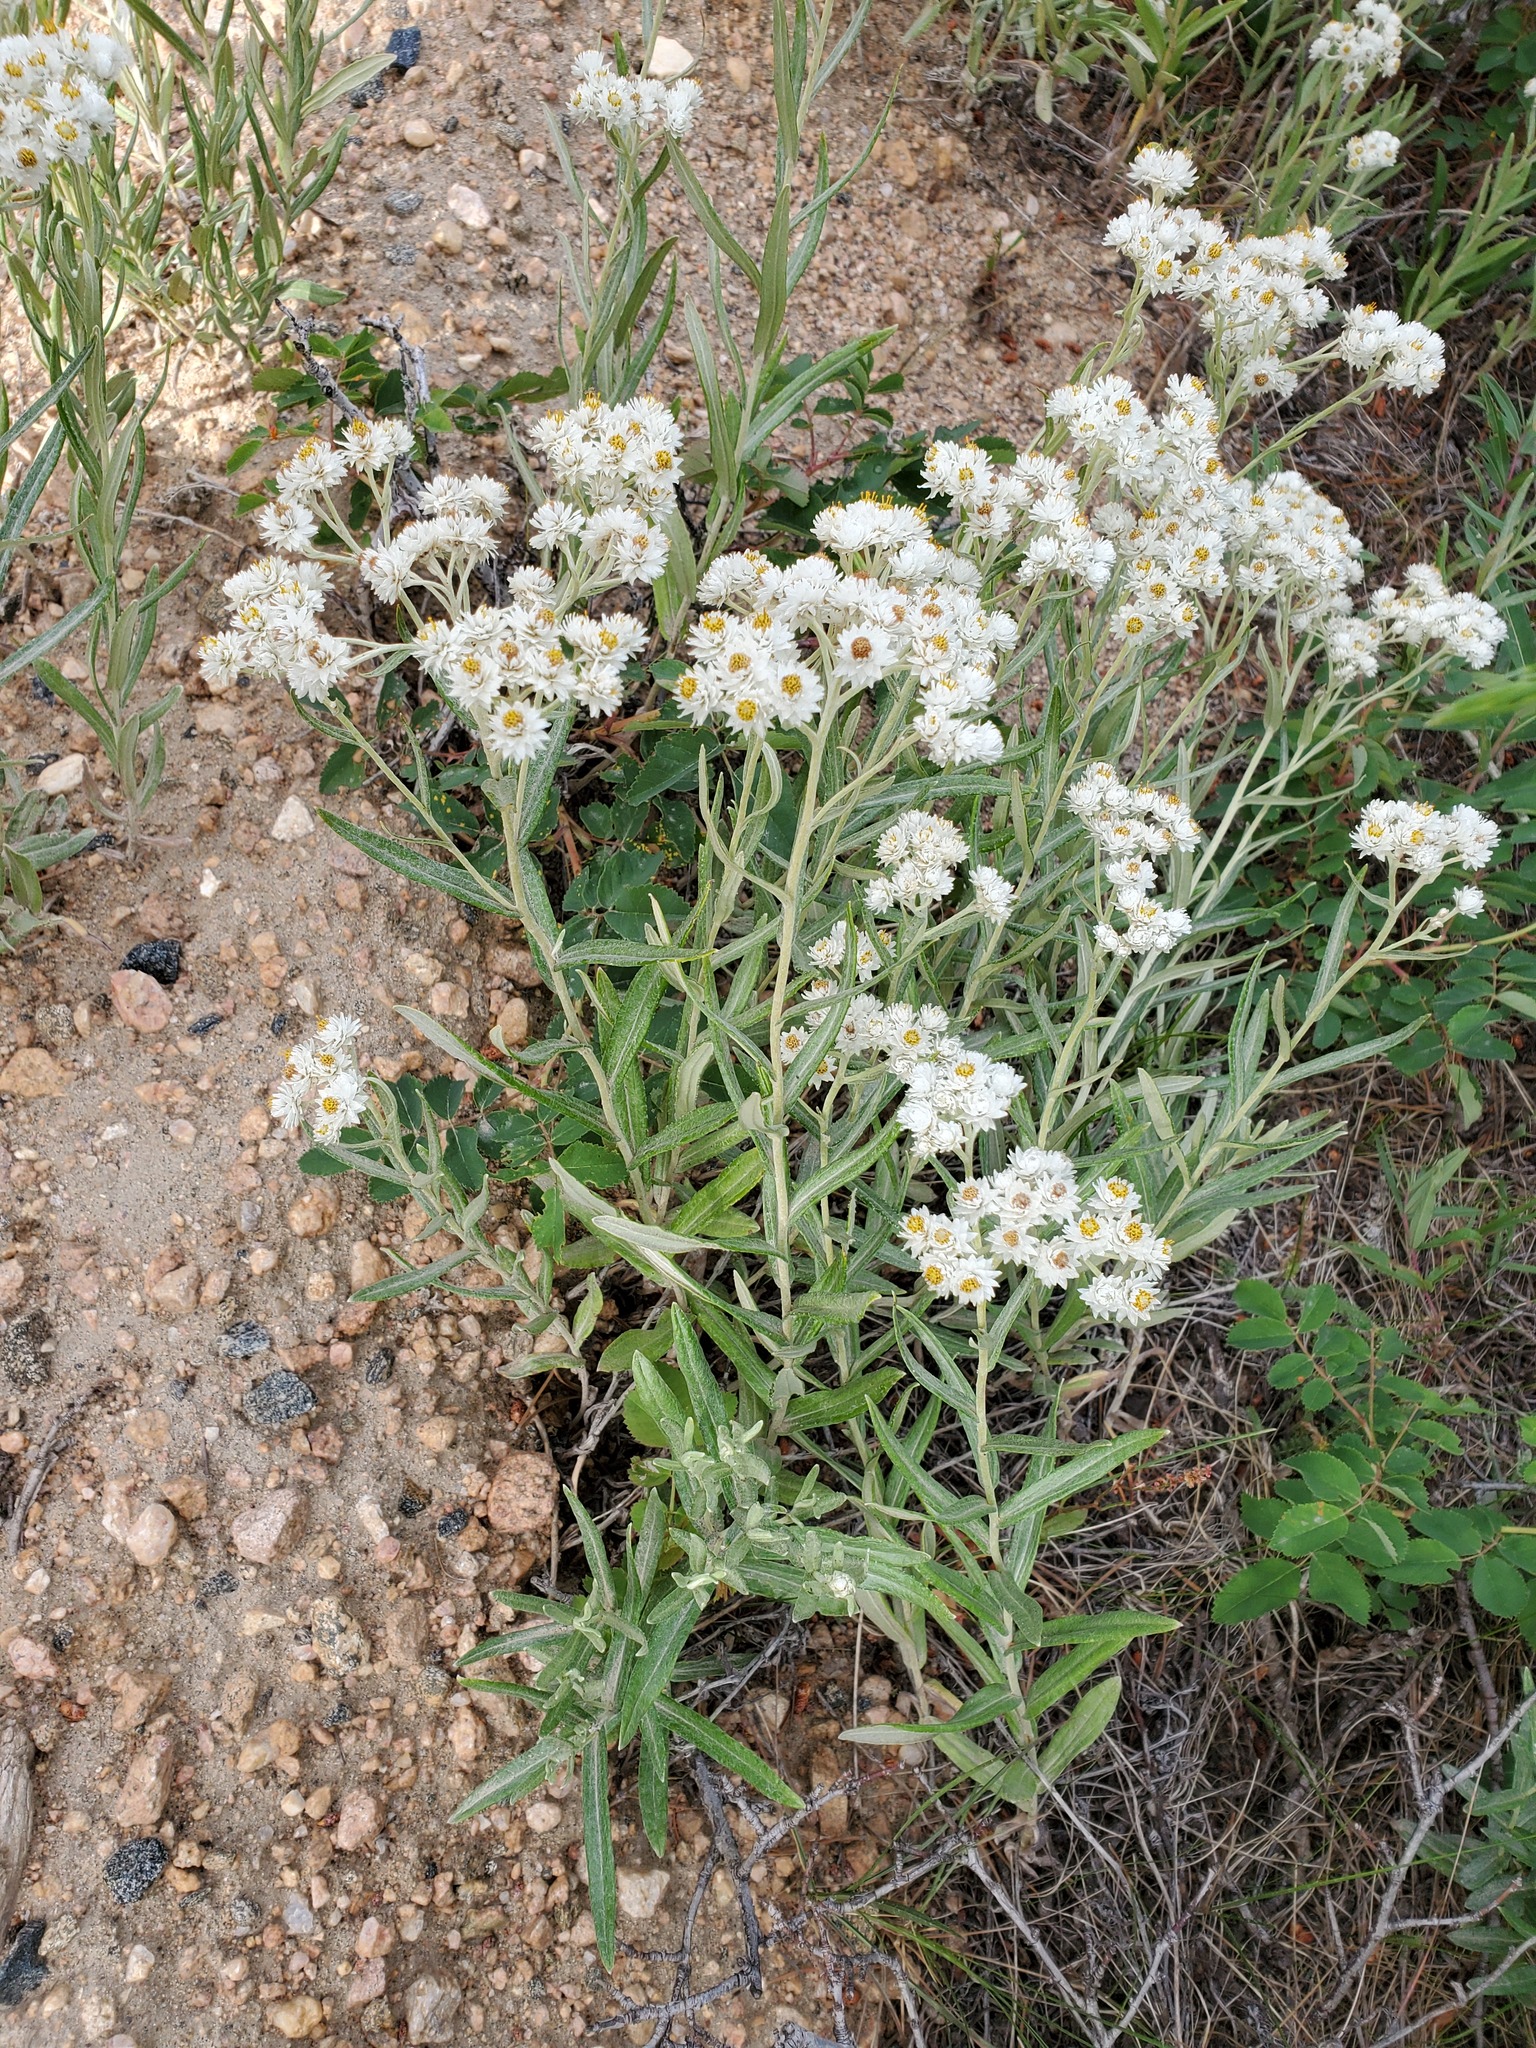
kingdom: Plantae
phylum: Tracheophyta
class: Magnoliopsida
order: Asterales
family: Asteraceae
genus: Anaphalis
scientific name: Anaphalis margaritacea
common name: Pearly everlasting
